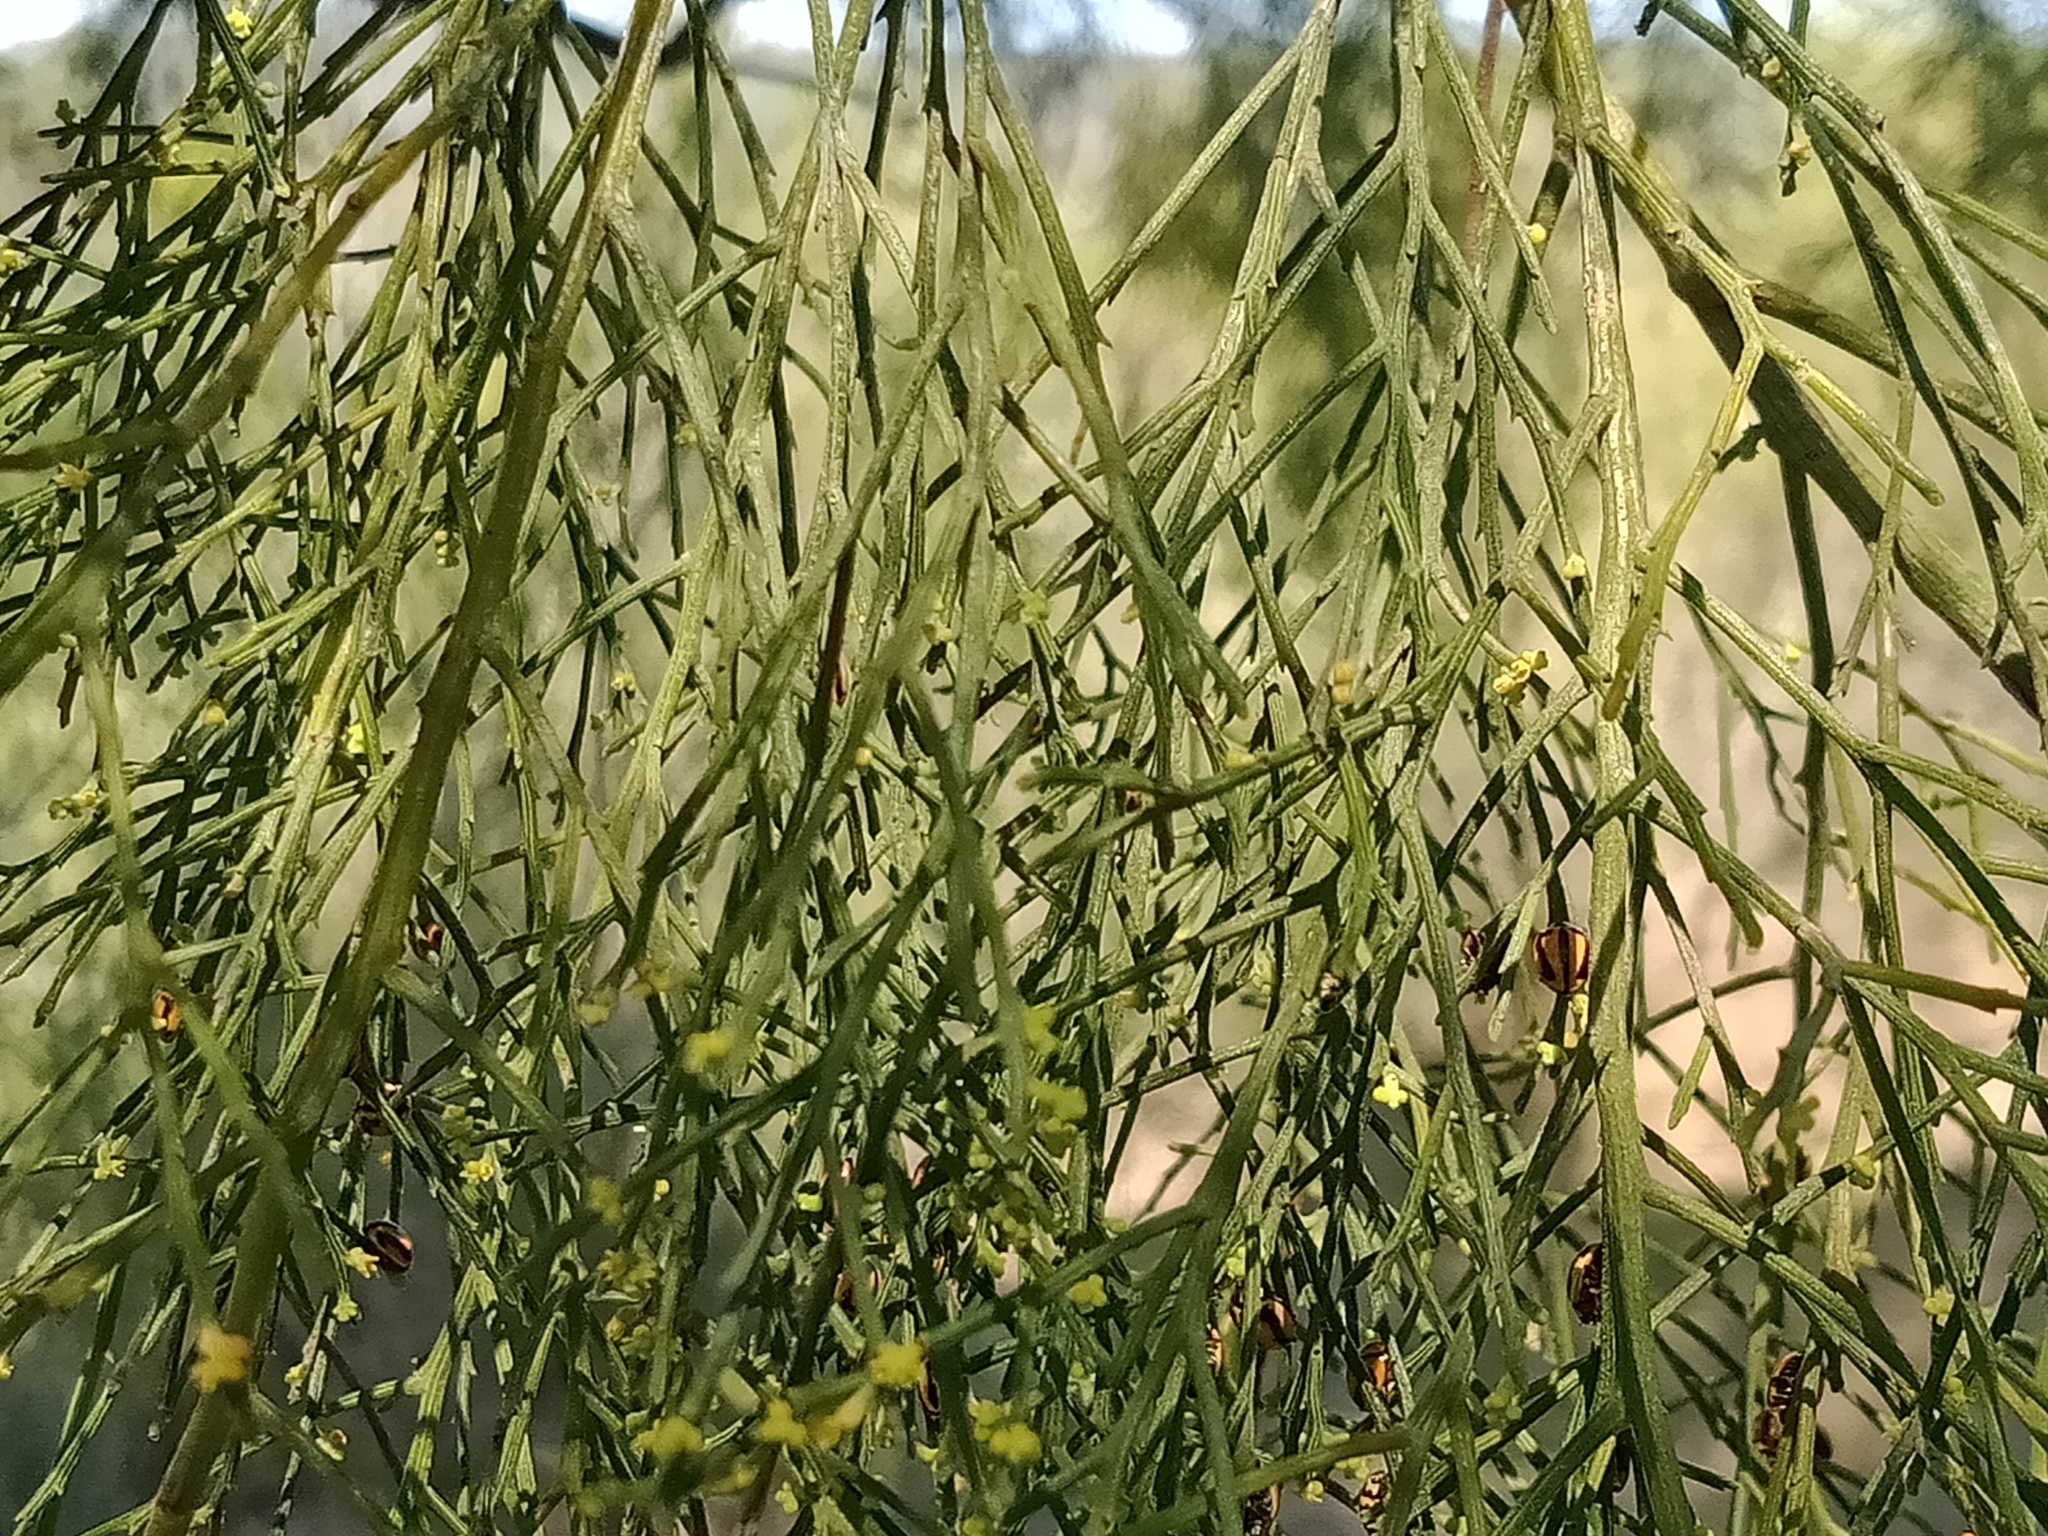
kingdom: Animalia
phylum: Arthropoda
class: Insecta
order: Coleoptera
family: Coccinellidae
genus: Micraspis
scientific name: Micraspis frenata
